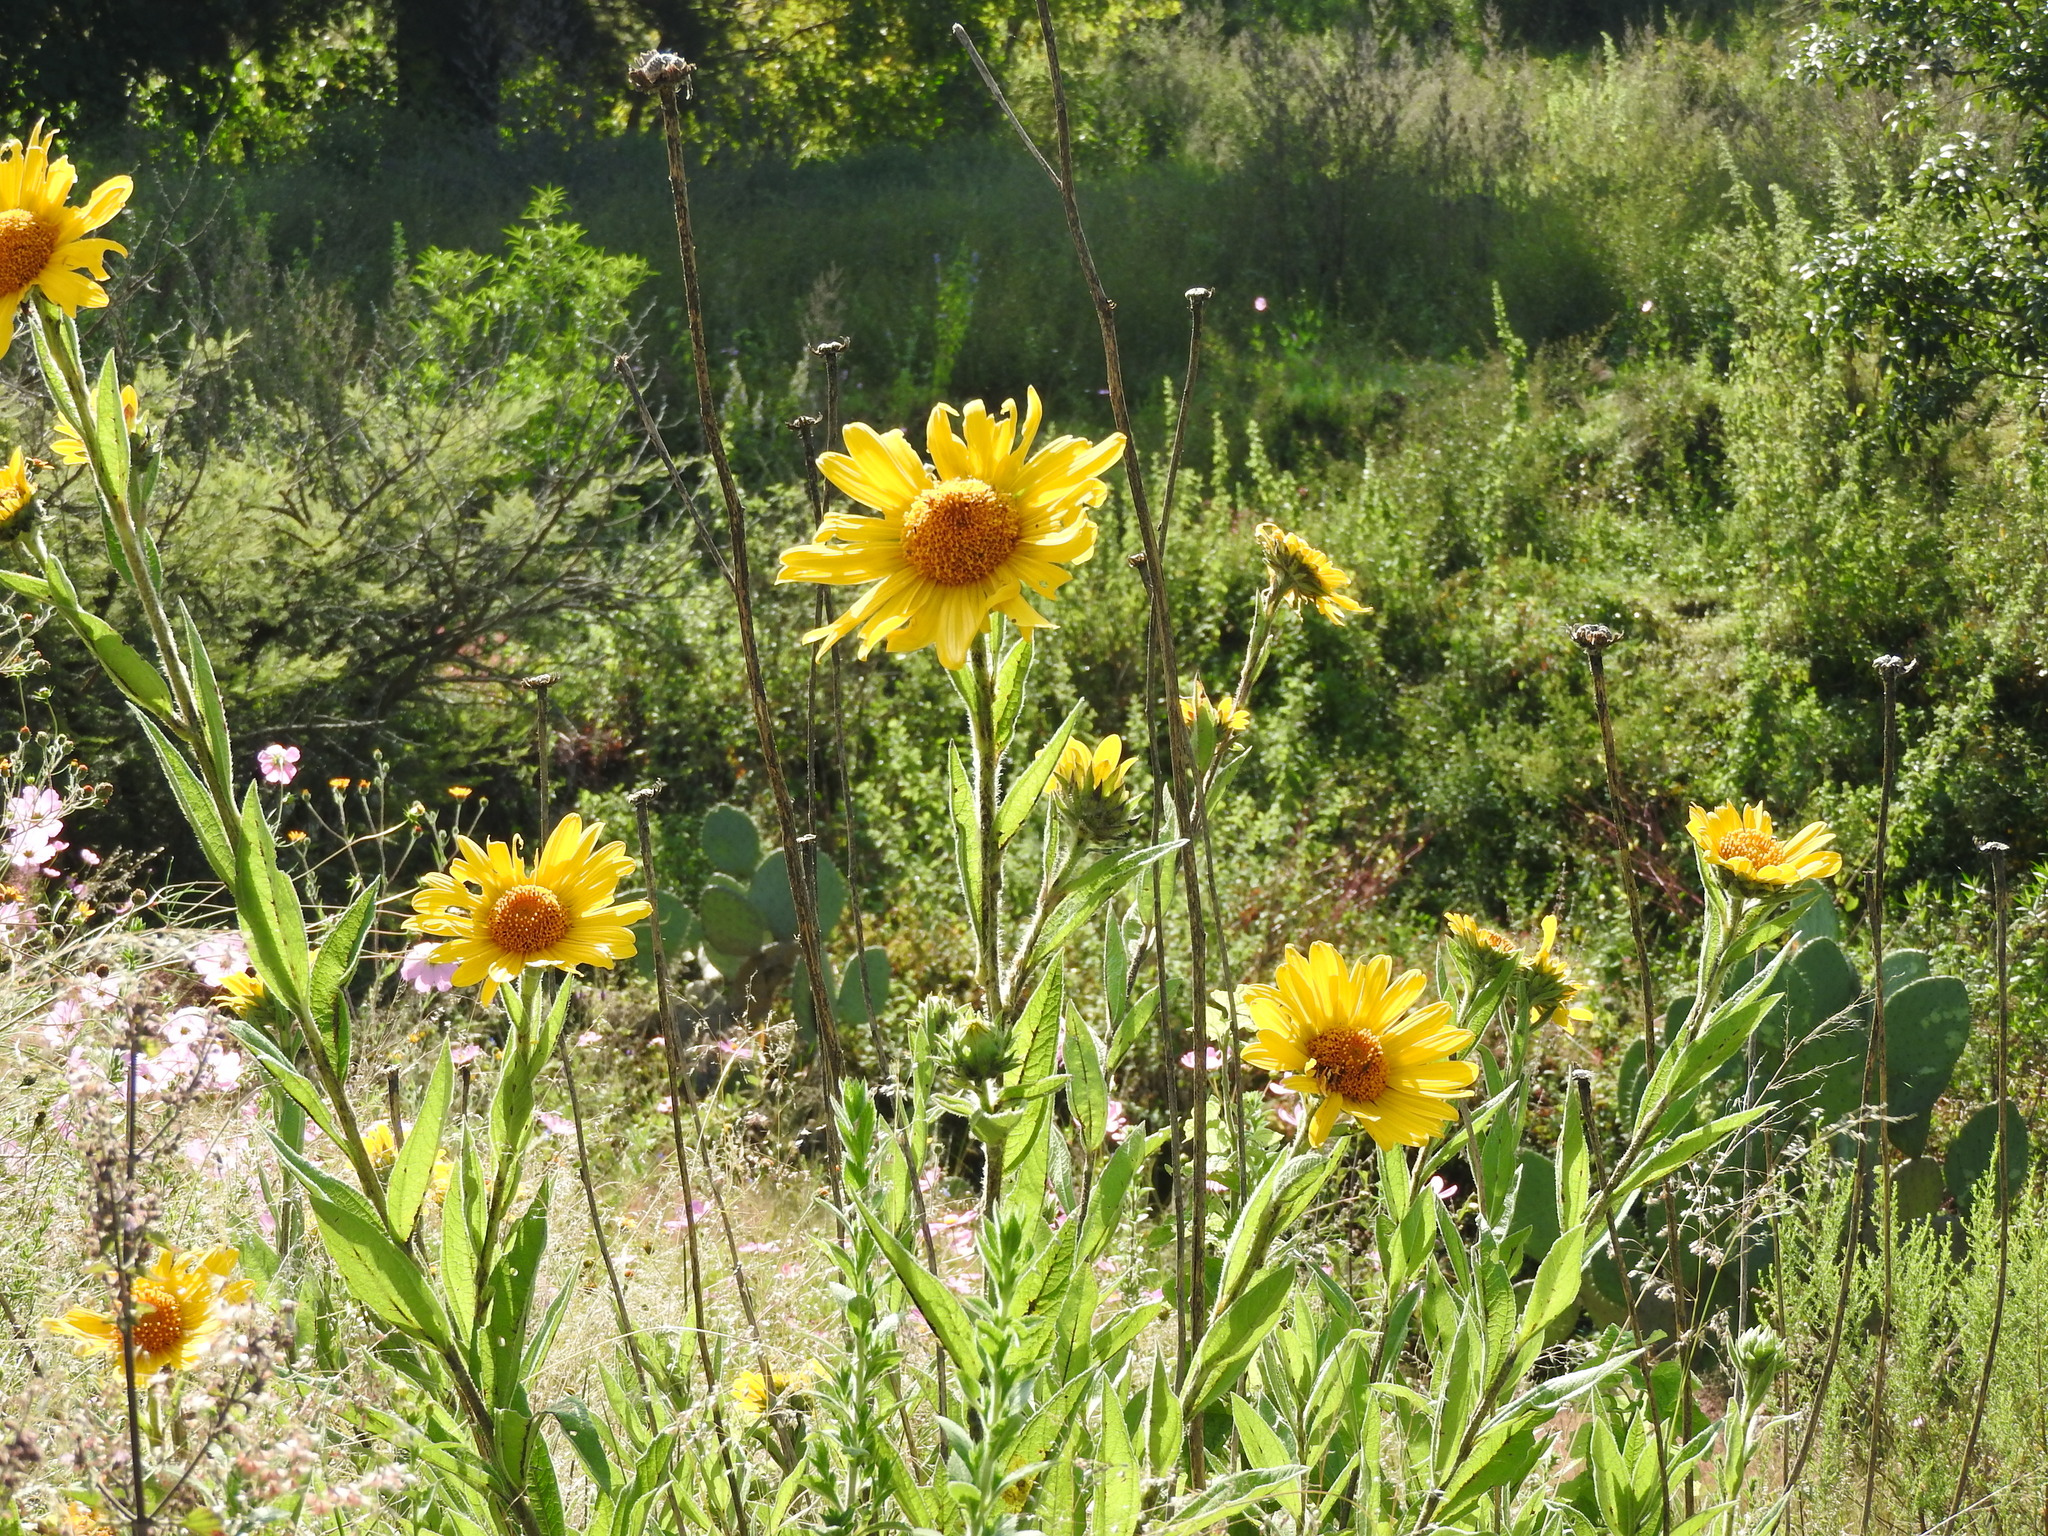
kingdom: Plantae
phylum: Tracheophyta
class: Magnoliopsida
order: Asterales
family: Asteraceae
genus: Aldama
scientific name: Aldama excelsa
